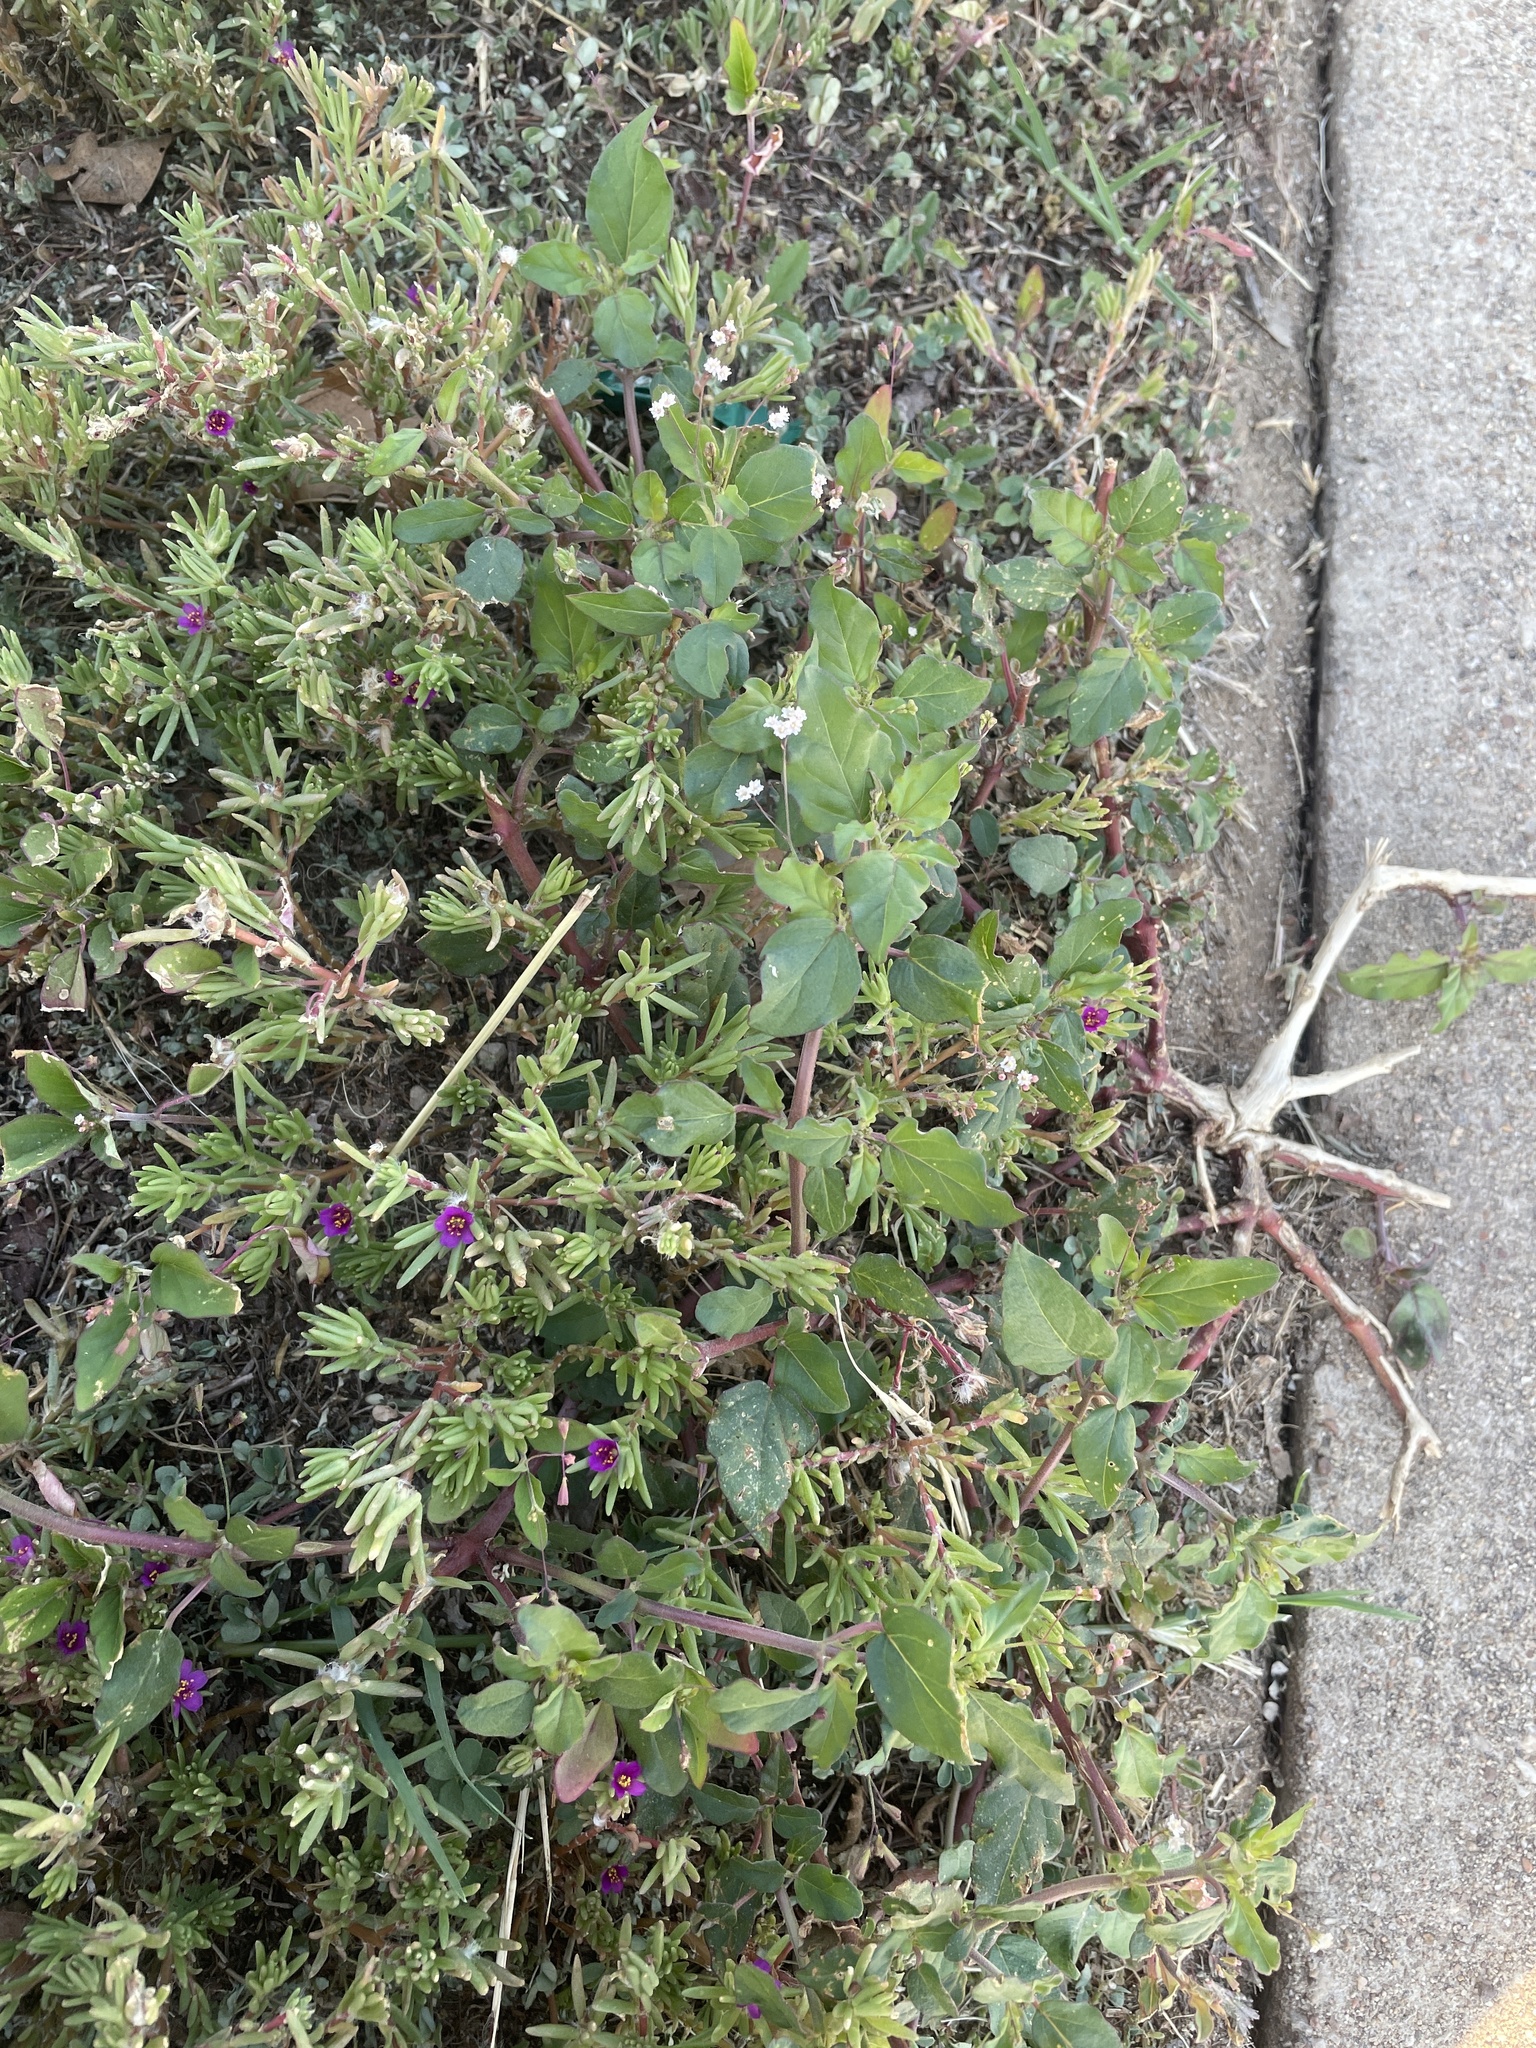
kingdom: Plantae
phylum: Tracheophyta
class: Magnoliopsida
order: Caryophyllales
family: Nyctaginaceae
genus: Boerhavia
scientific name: Boerhavia erecta
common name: Erect spiderling
